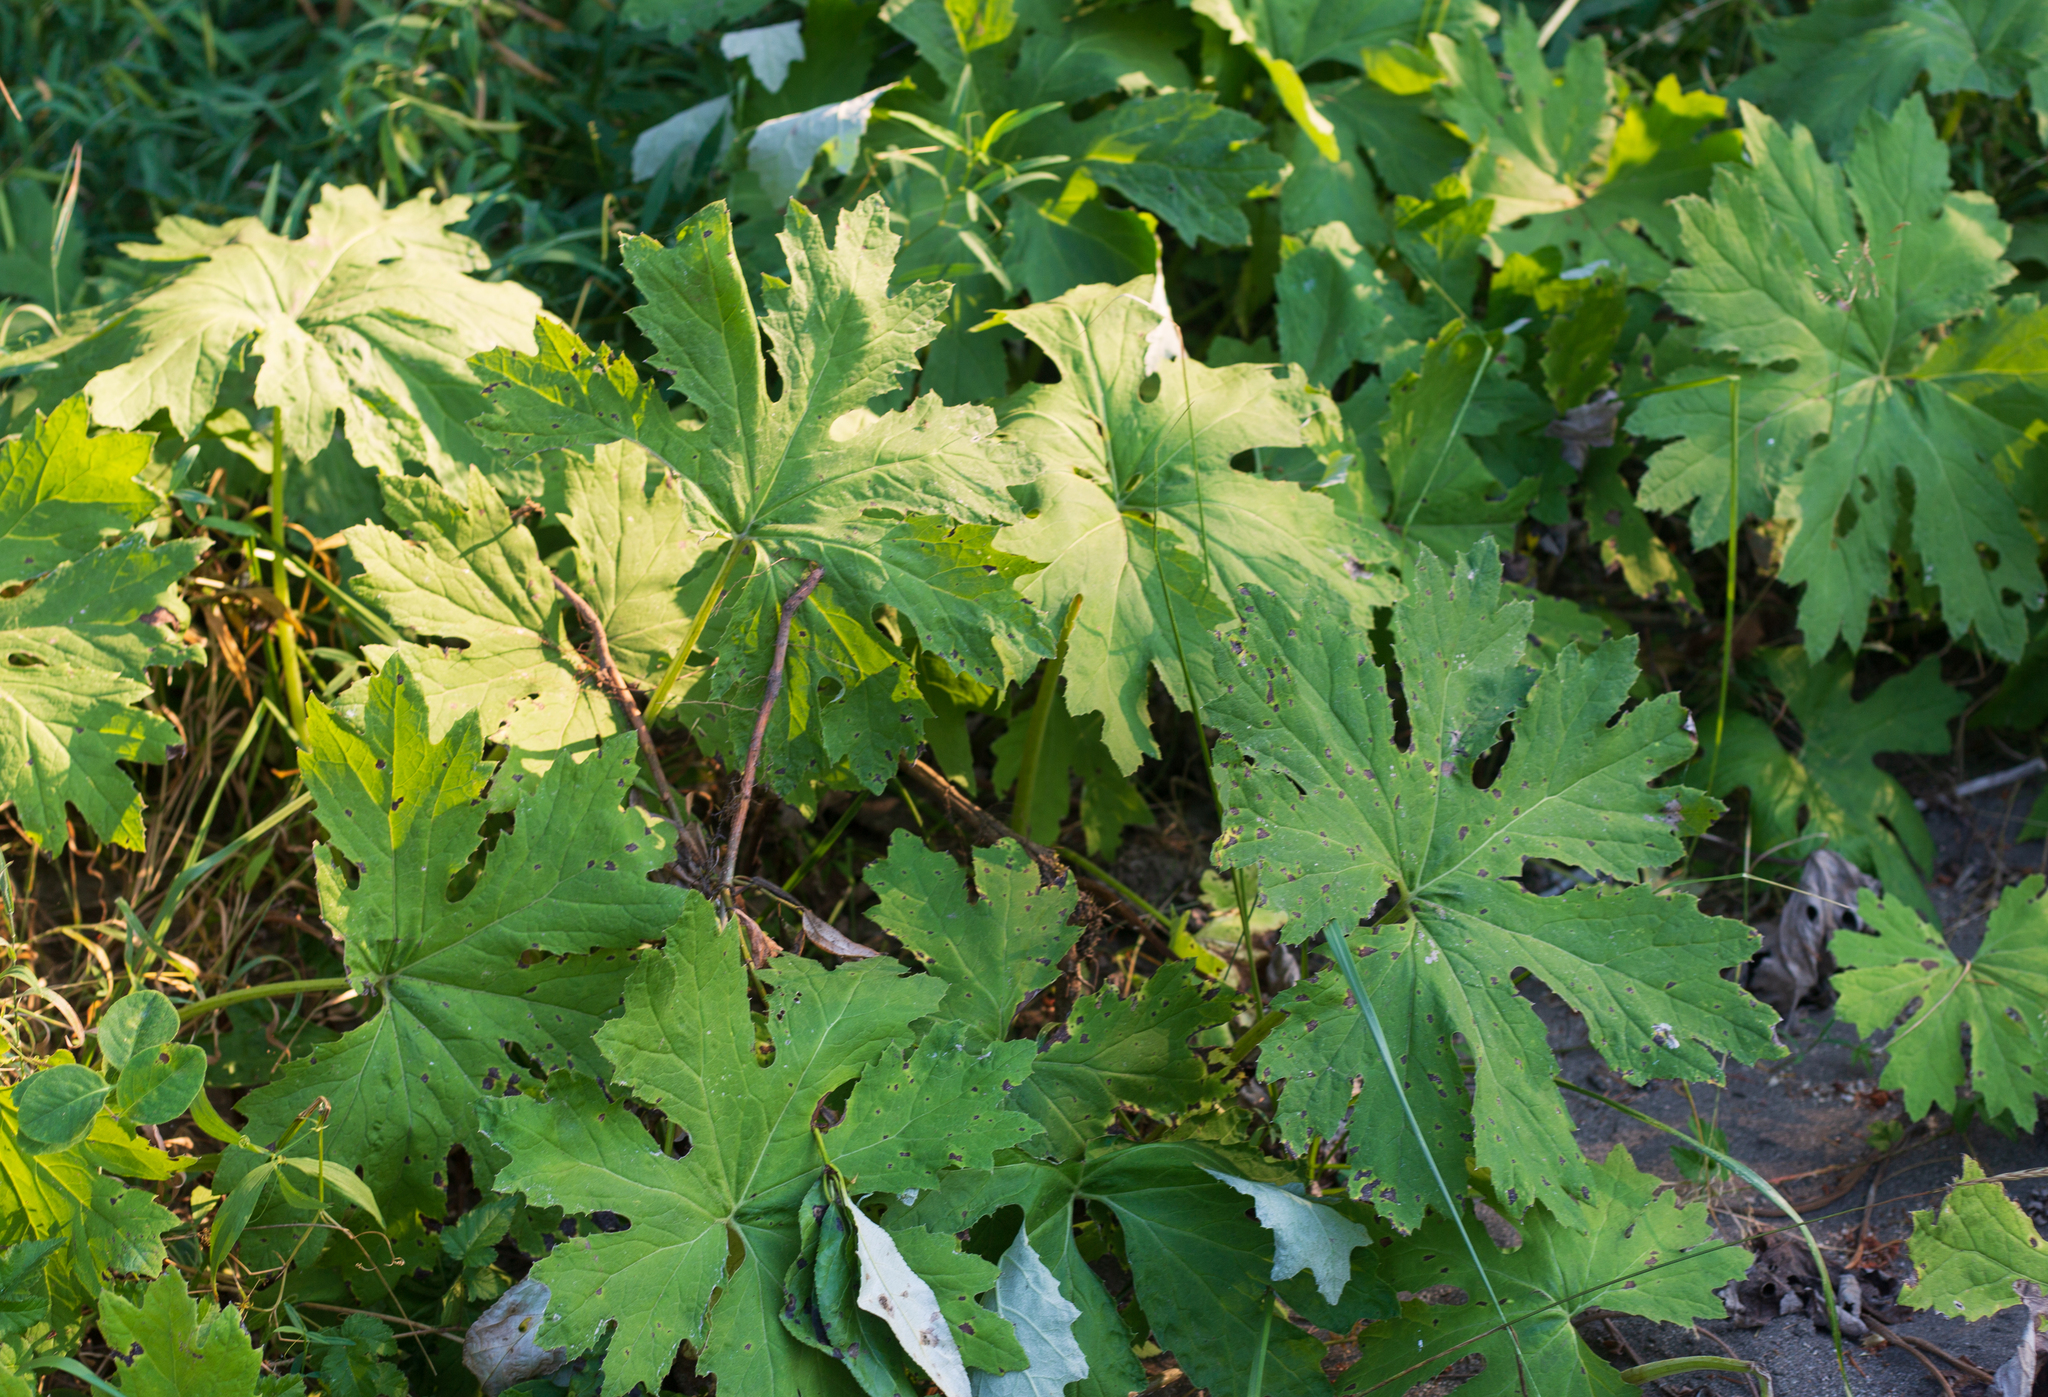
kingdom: Plantae
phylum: Tracheophyta
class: Magnoliopsida
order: Asterales
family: Asteraceae
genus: Petasites
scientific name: Petasites frigidus
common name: Arctic butterbur
